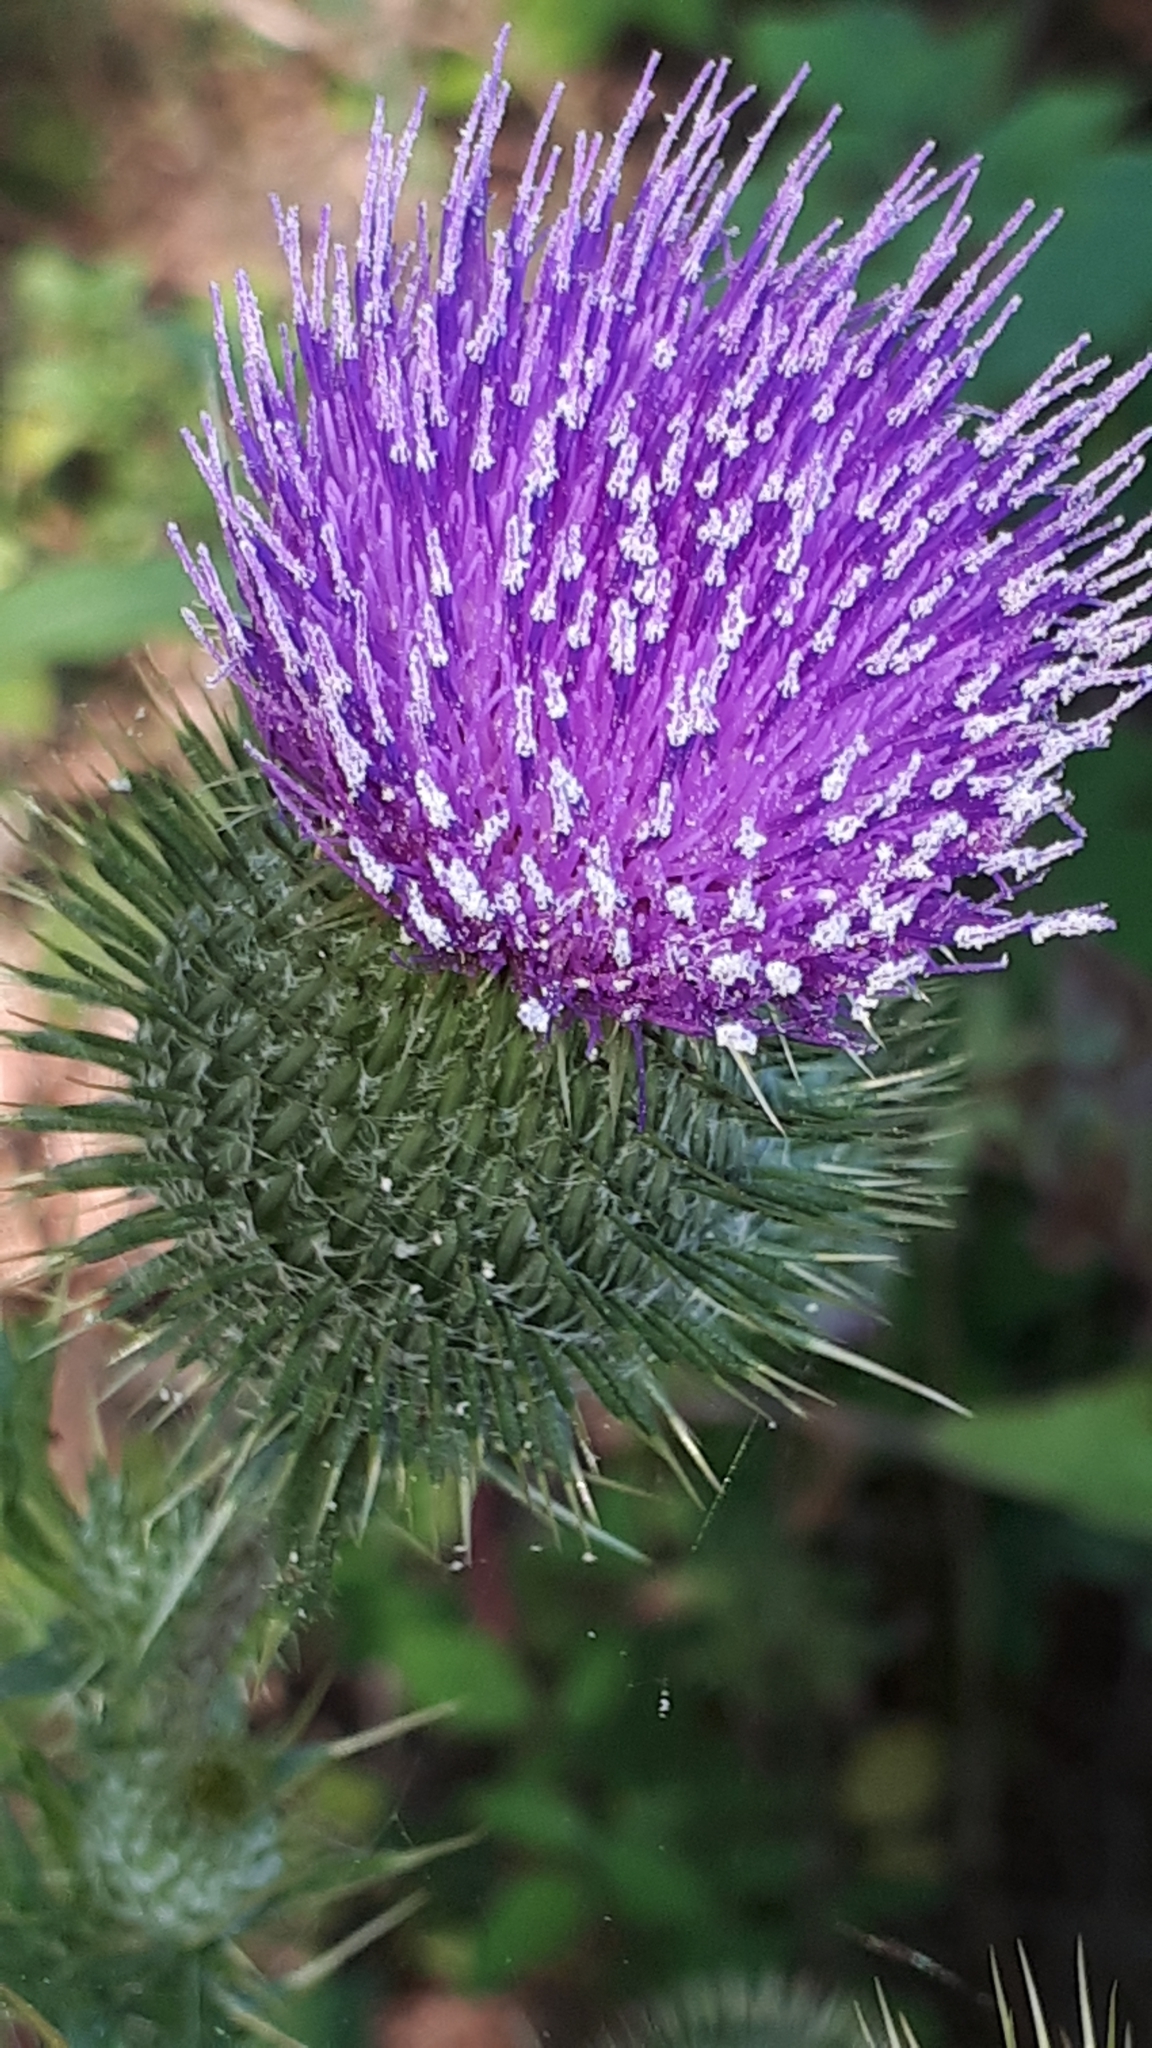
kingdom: Plantae
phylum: Tracheophyta
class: Magnoliopsida
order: Asterales
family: Asteraceae
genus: Cirsium
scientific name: Cirsium vulgare
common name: Bull thistle
